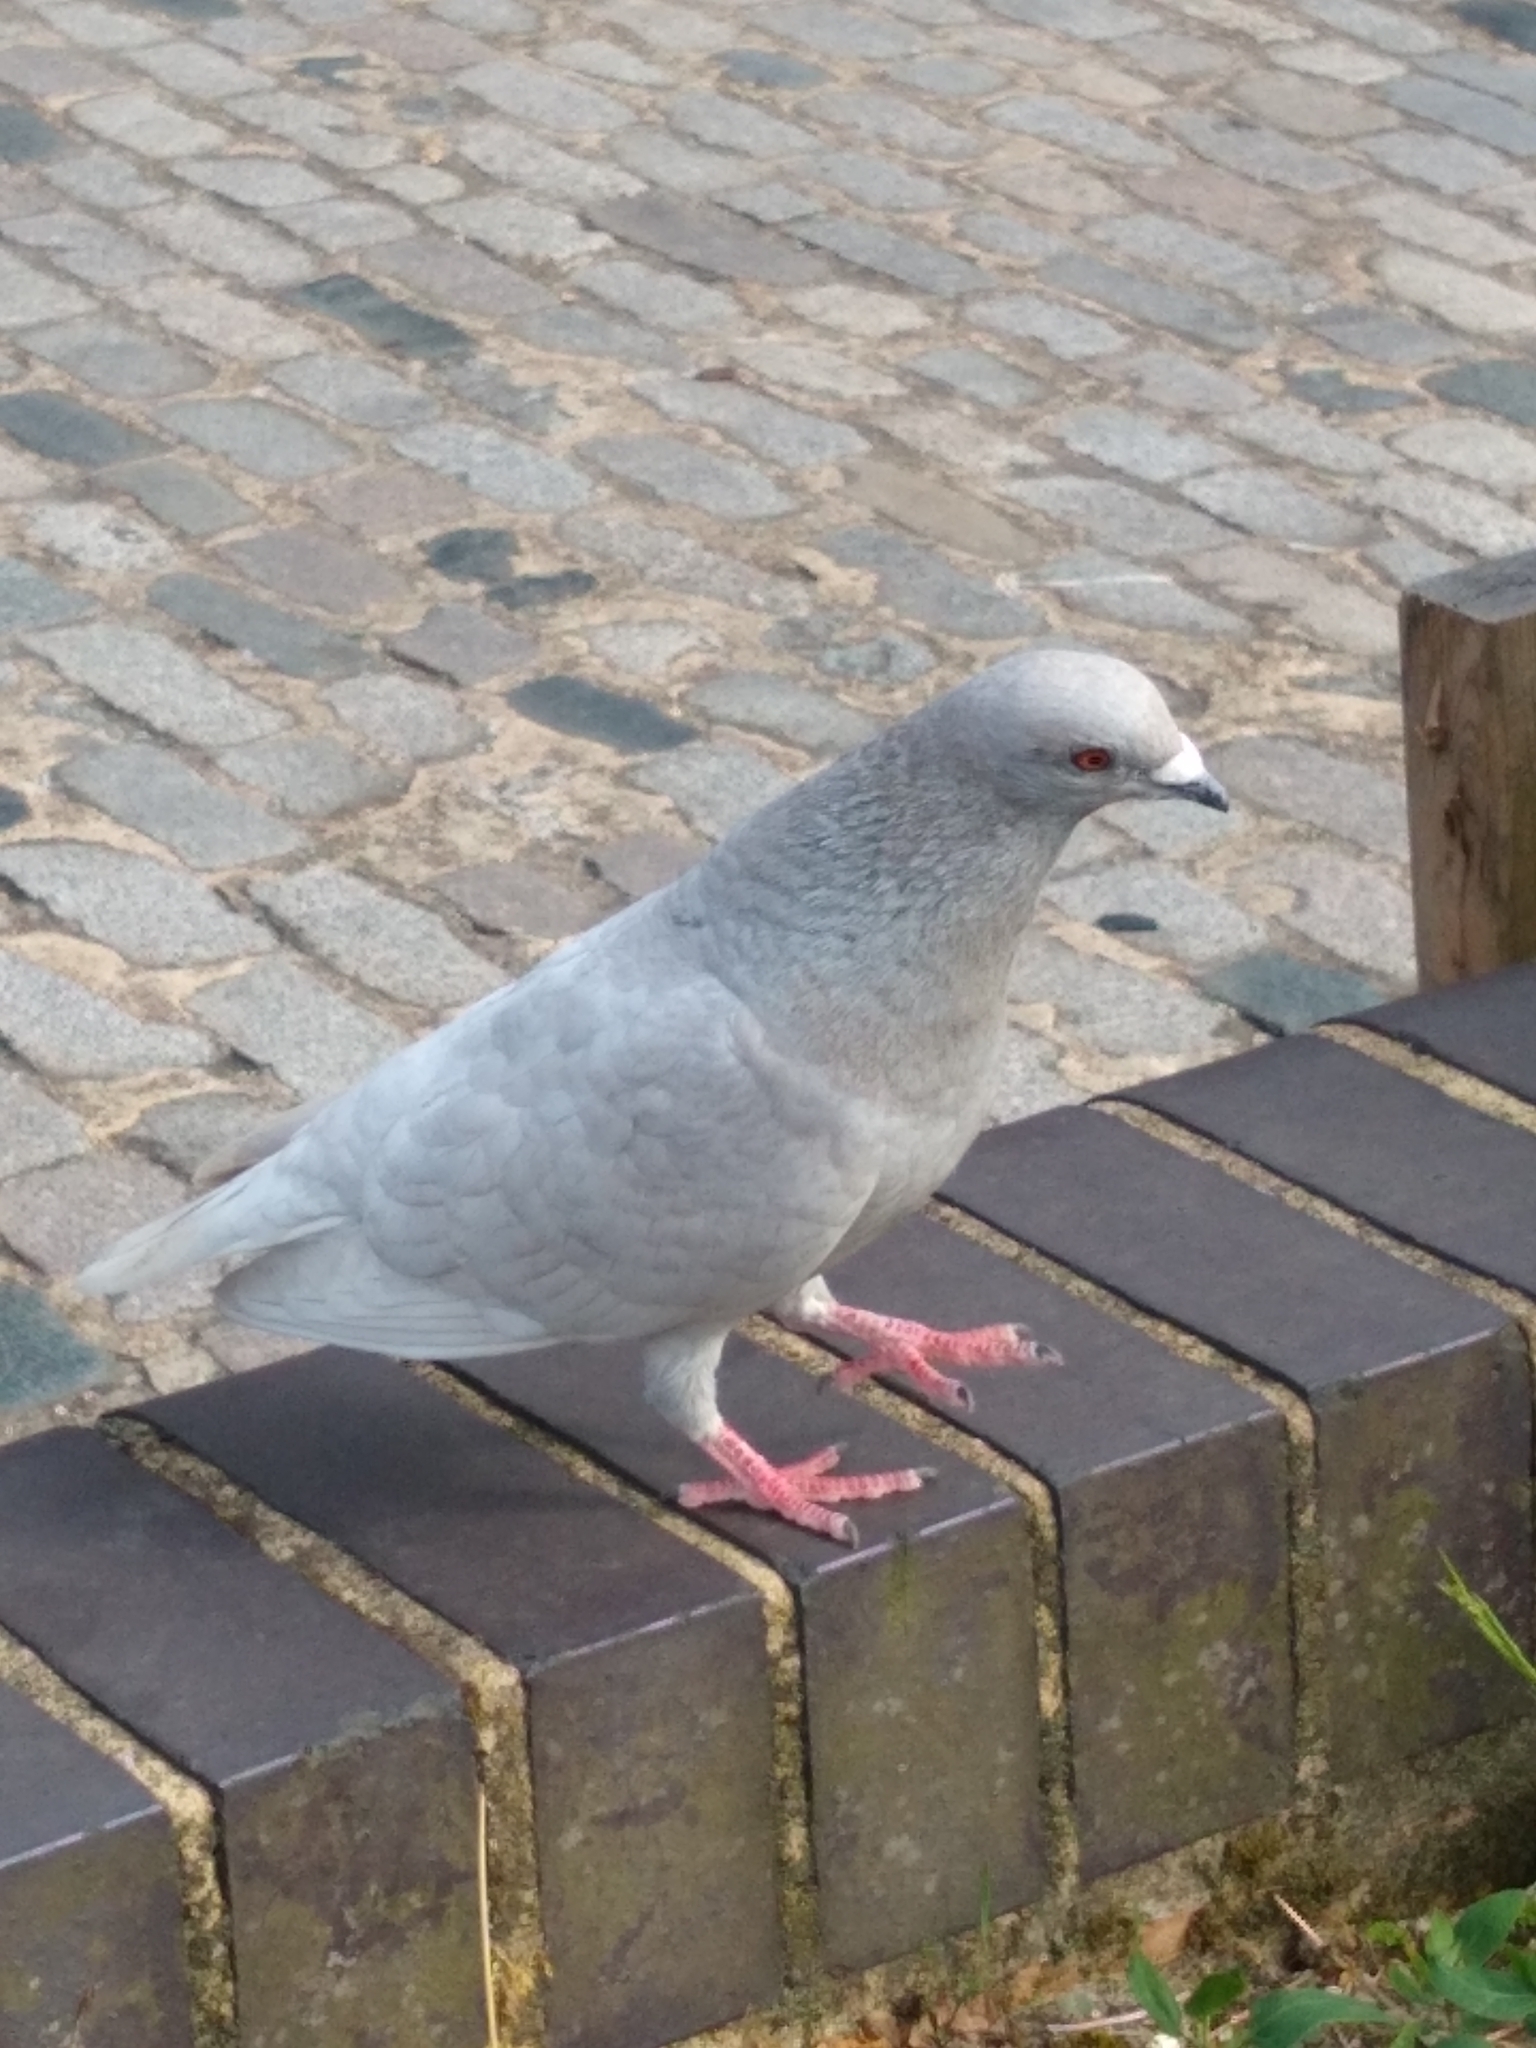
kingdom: Animalia
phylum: Chordata
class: Aves
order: Columbiformes
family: Columbidae
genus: Columba
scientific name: Columba livia
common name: Rock pigeon
